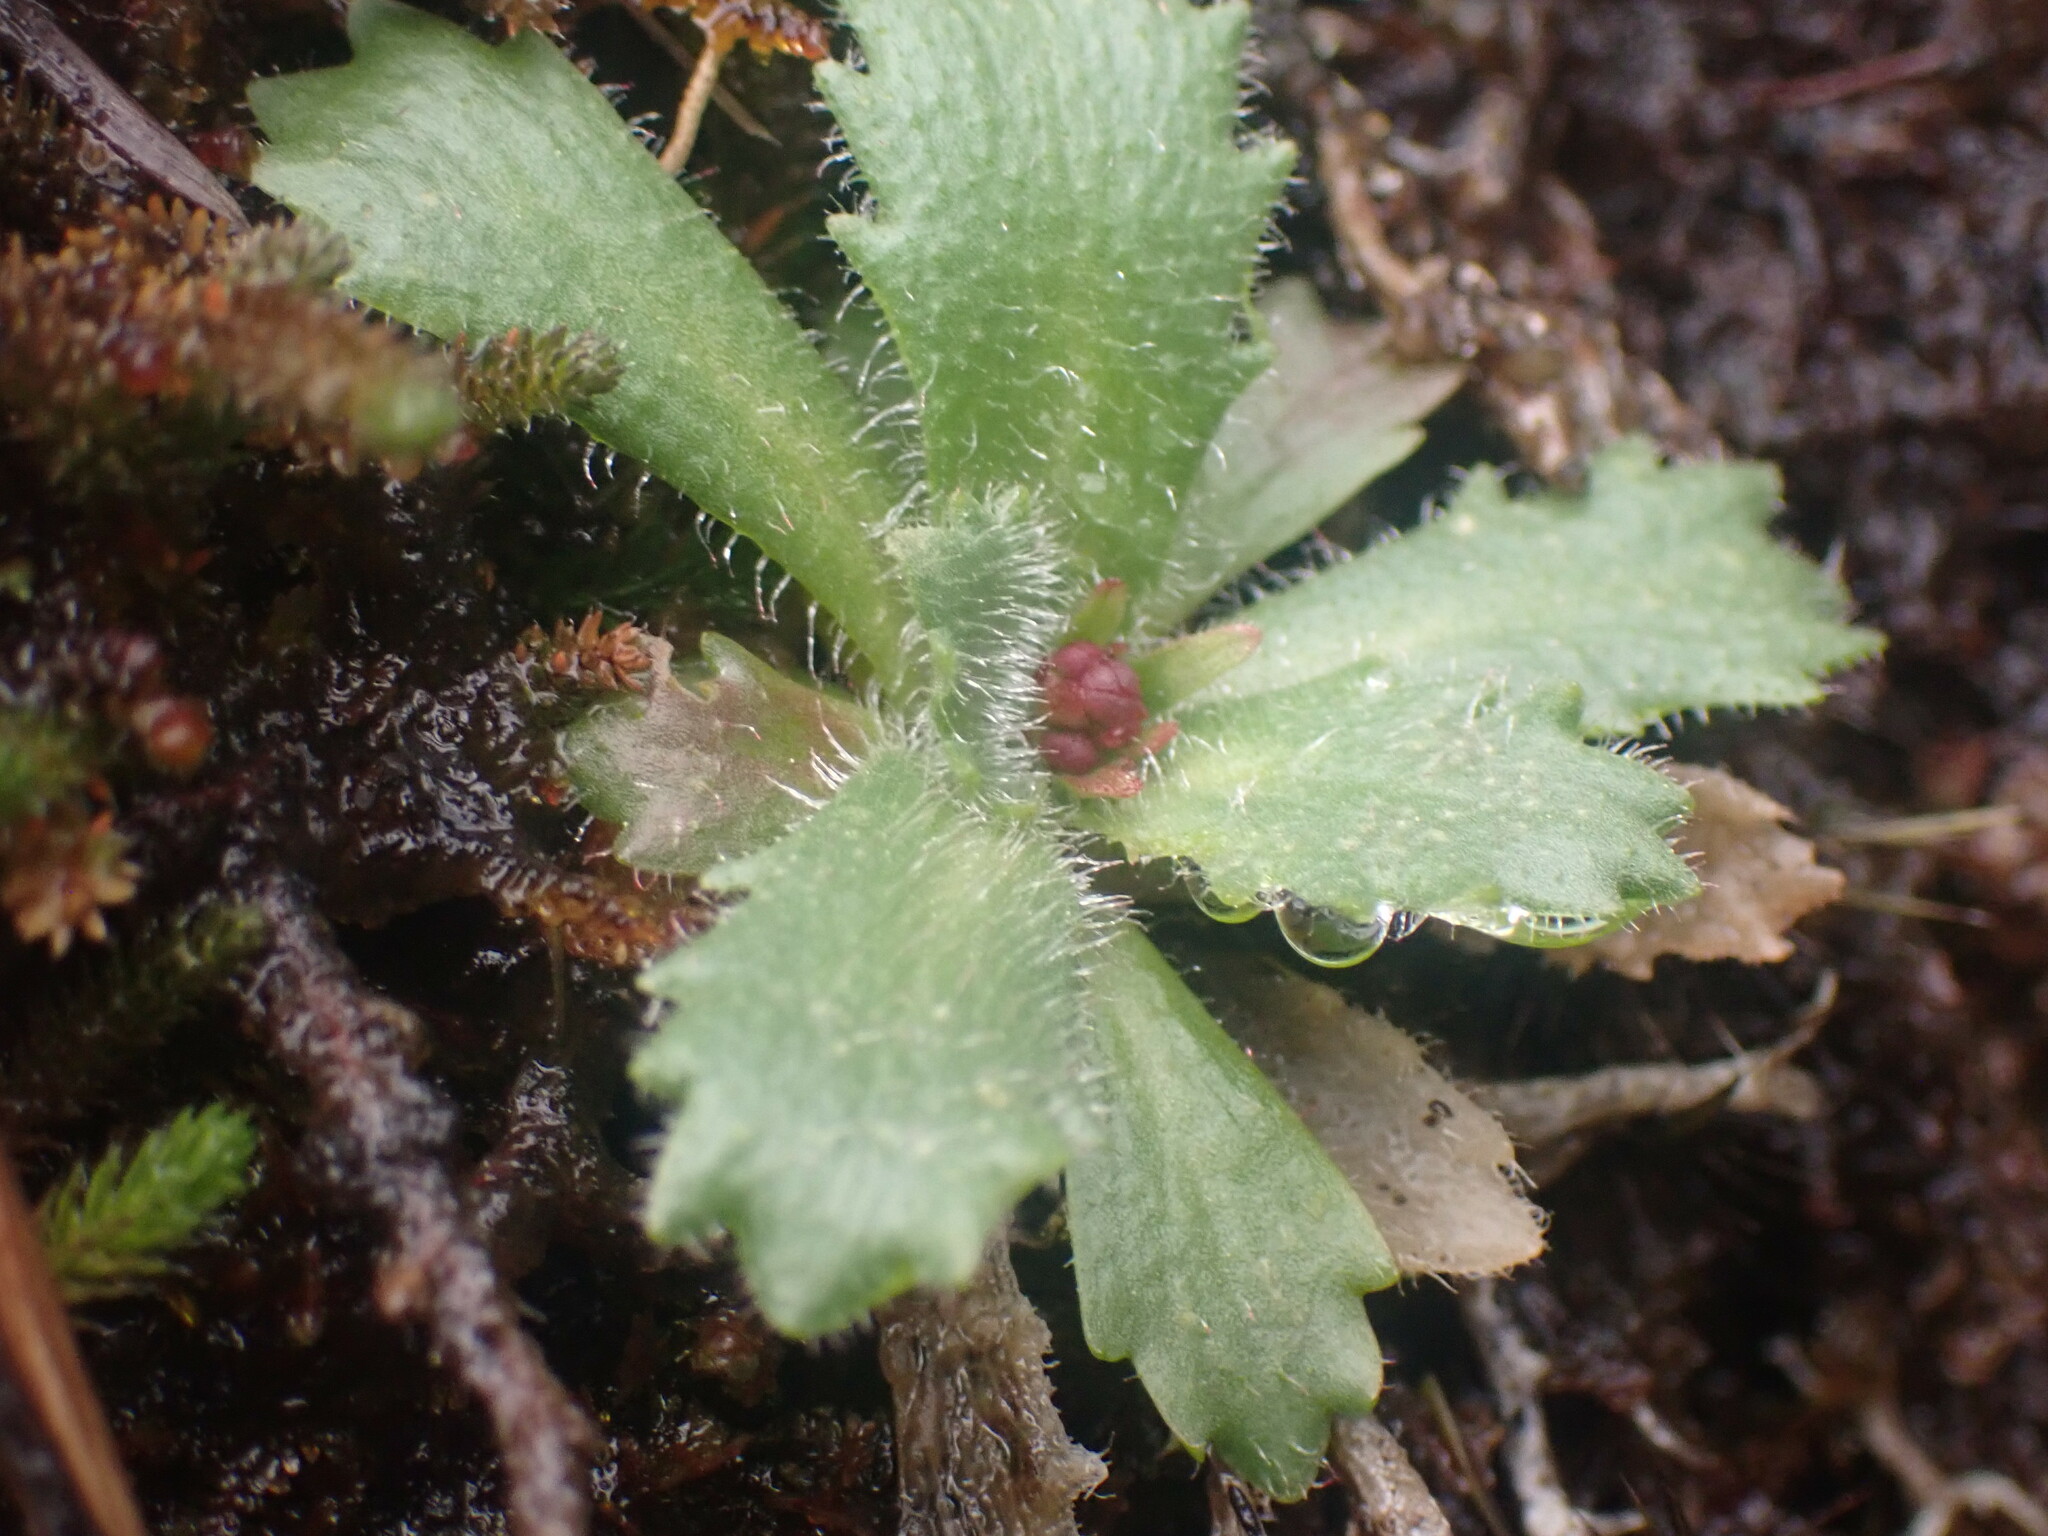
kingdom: Plantae
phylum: Tracheophyta
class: Magnoliopsida
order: Saxifragales
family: Saxifragaceae
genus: Micranthes
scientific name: Micranthes ferruginea
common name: Rusty saxifrage
